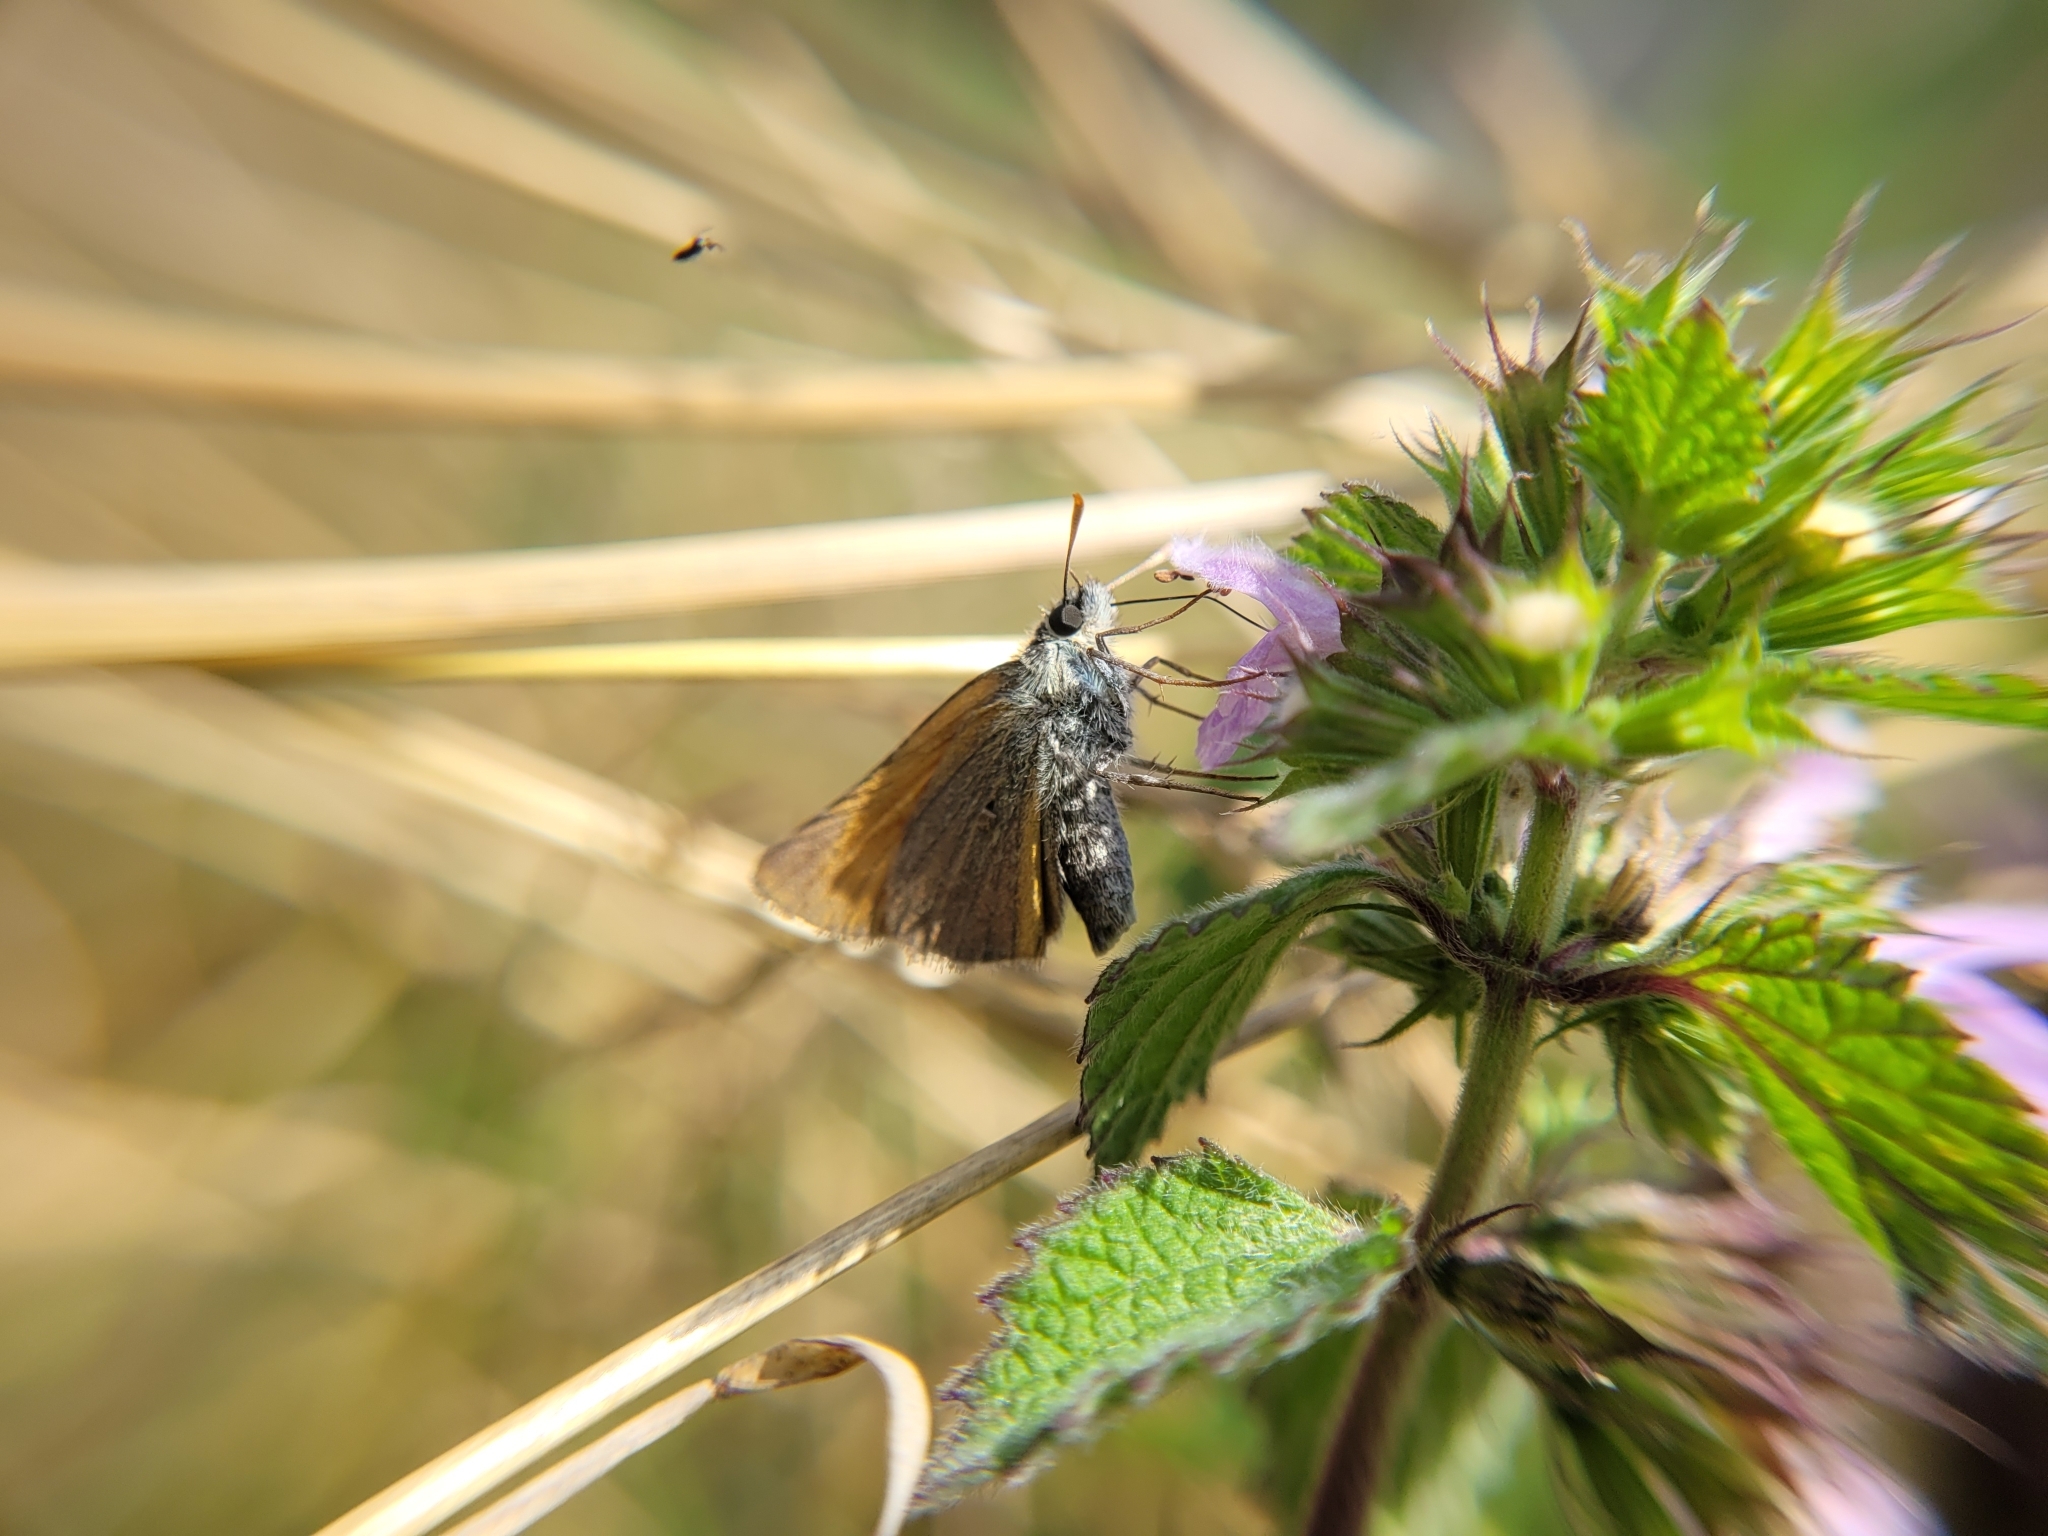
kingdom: Animalia
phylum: Arthropoda
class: Insecta
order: Lepidoptera
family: Hesperiidae
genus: Thymelicus
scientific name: Thymelicus sylvestris
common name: Small skipper
